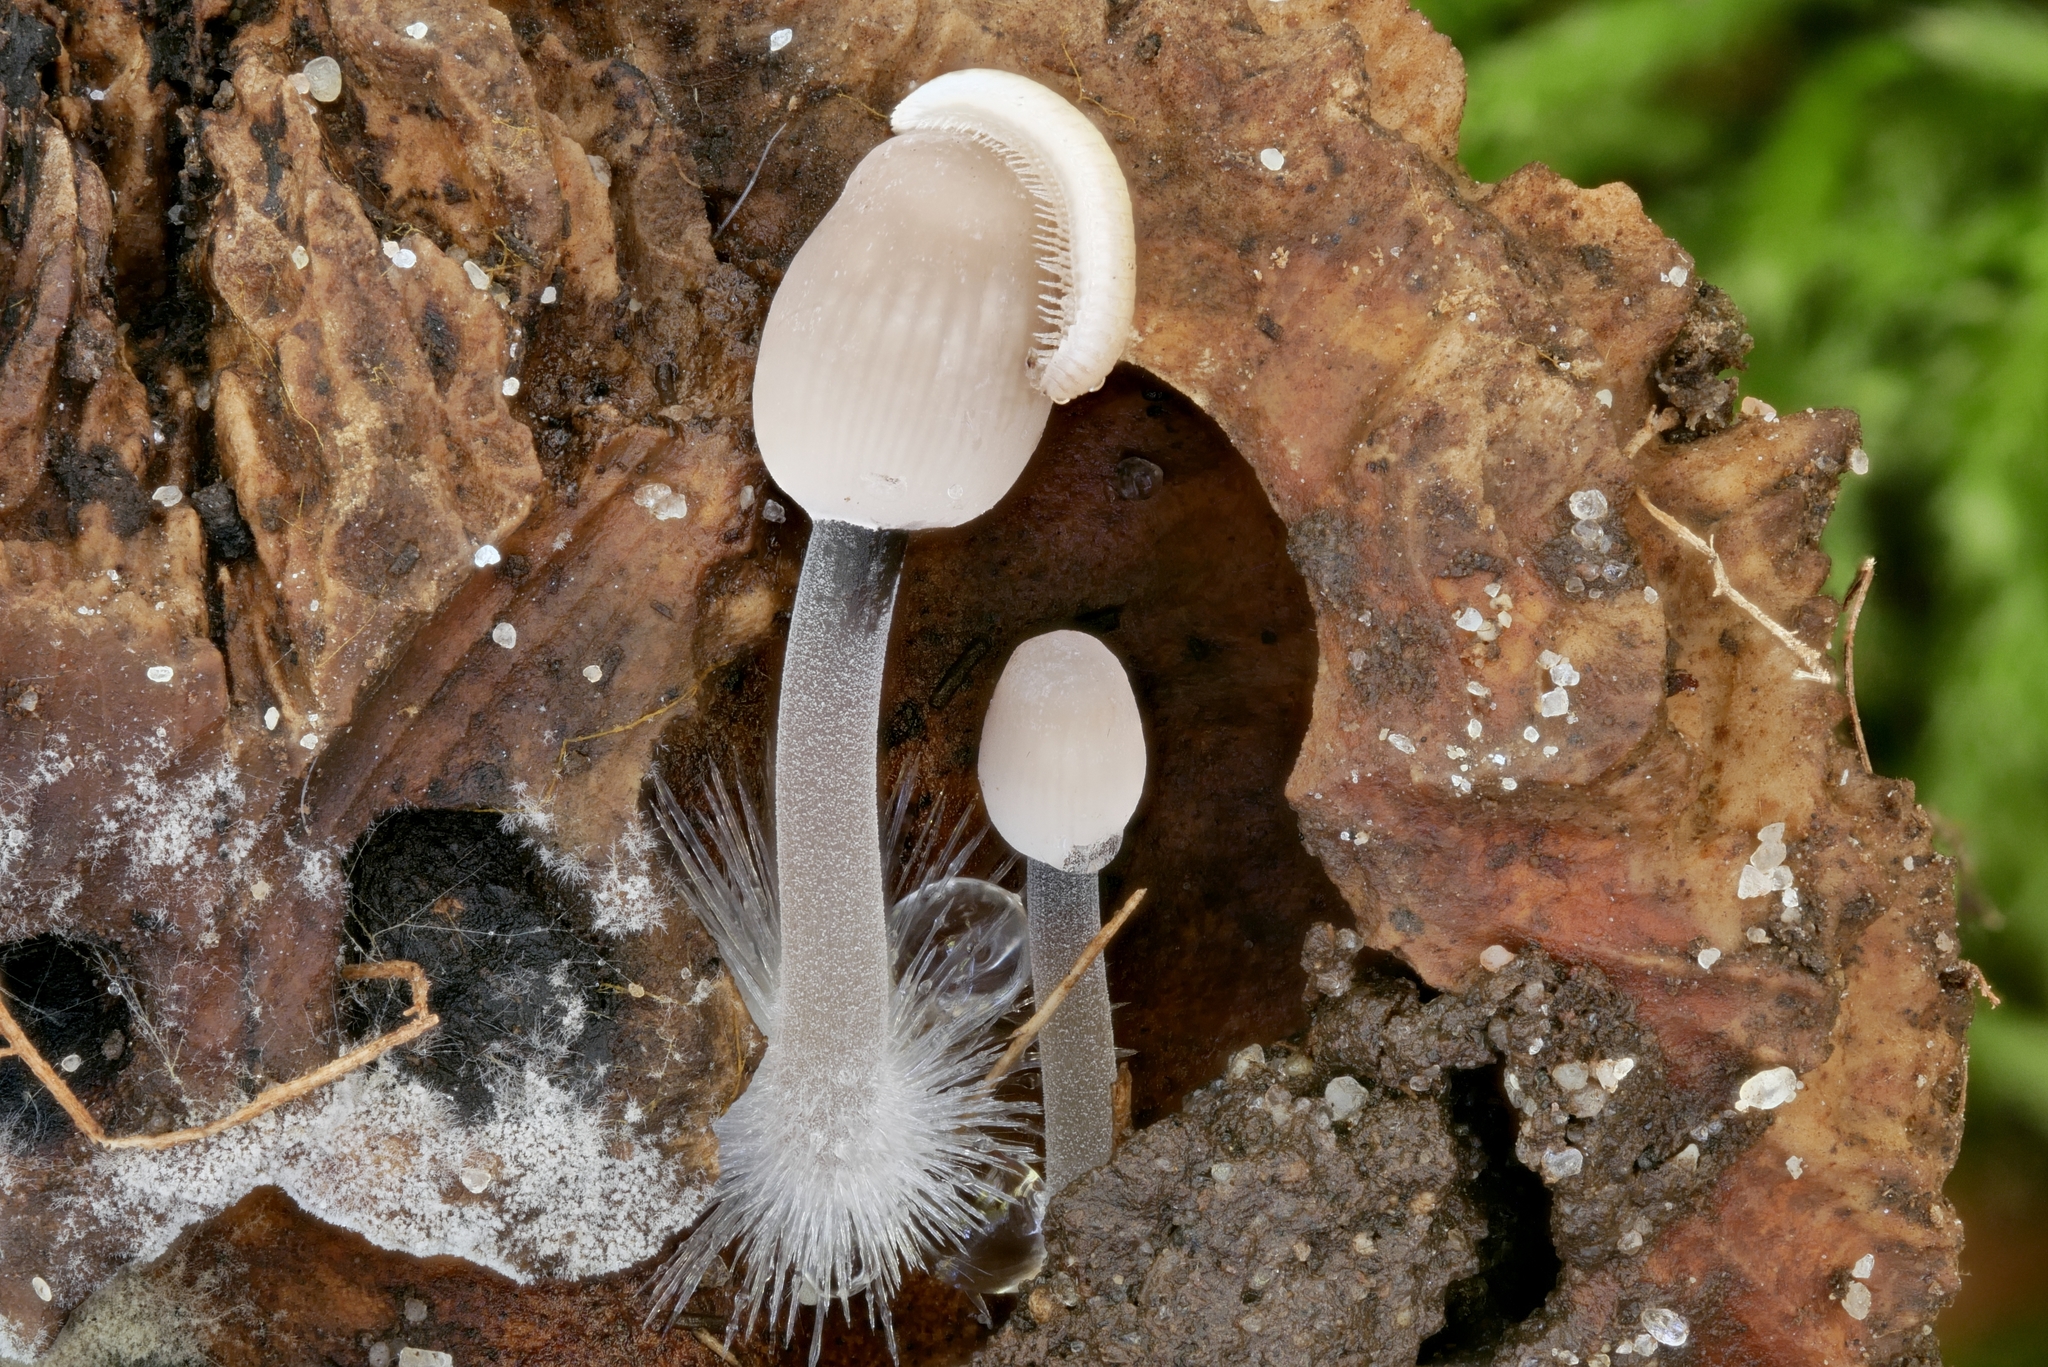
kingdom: Fungi
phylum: Basidiomycota
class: Agaricomycetes
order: Agaricales
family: Mycenaceae
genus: Mycena
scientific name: Mycena filopes
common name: Iodine bonnet
